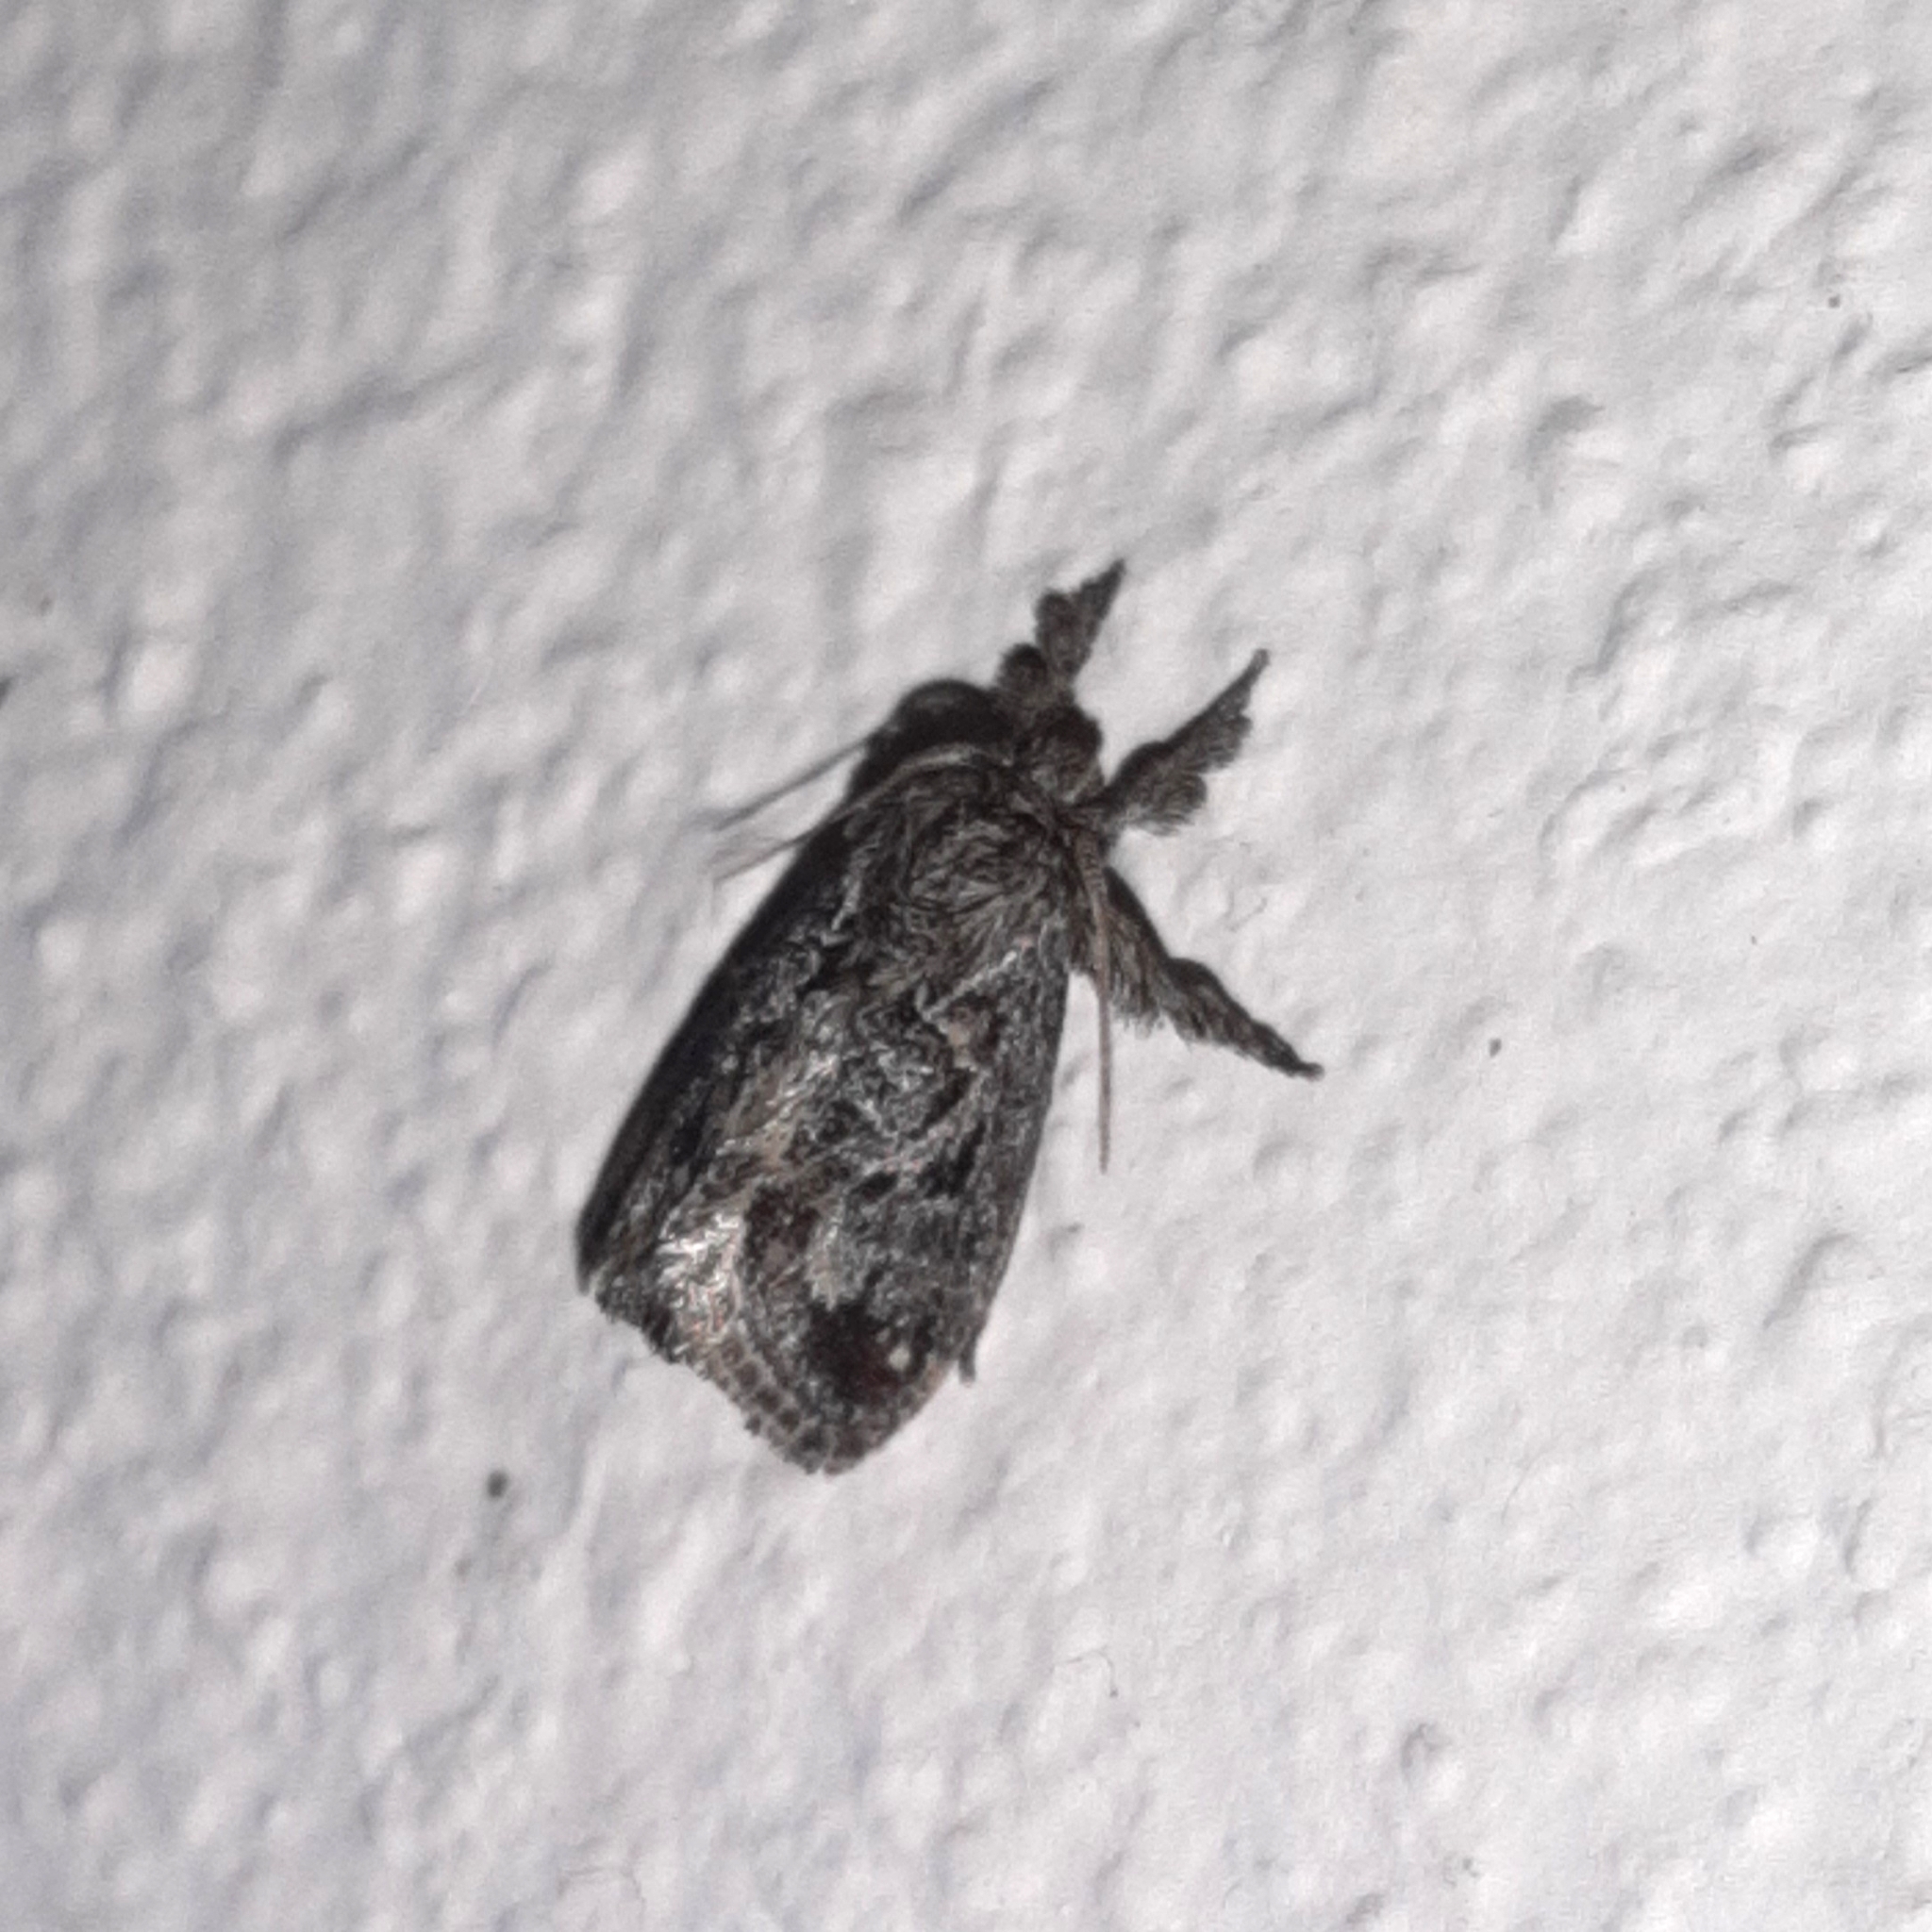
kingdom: Animalia
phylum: Arthropoda
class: Insecta
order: Lepidoptera
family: Limacodidae
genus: Euclea
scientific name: Euclea plugma
